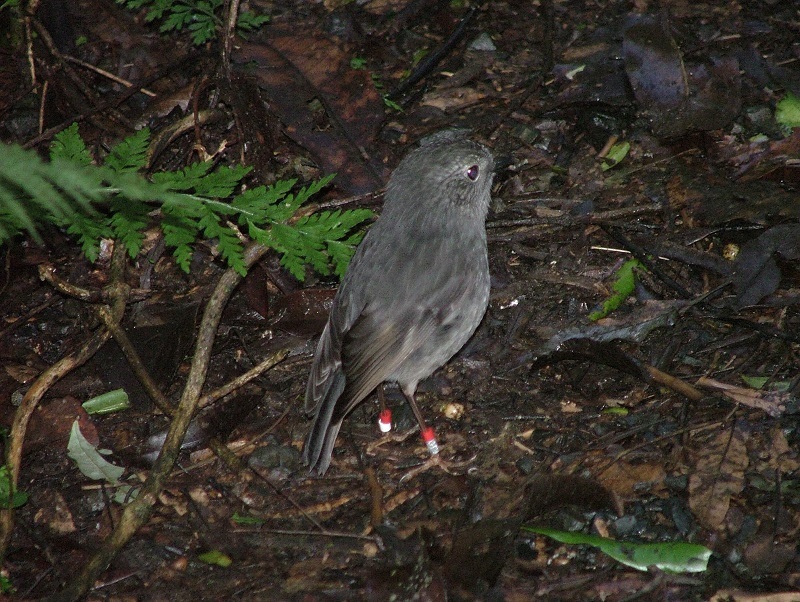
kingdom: Animalia
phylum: Chordata
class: Aves
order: Passeriformes
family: Petroicidae
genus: Petroica
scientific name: Petroica australis
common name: New zealand robin
